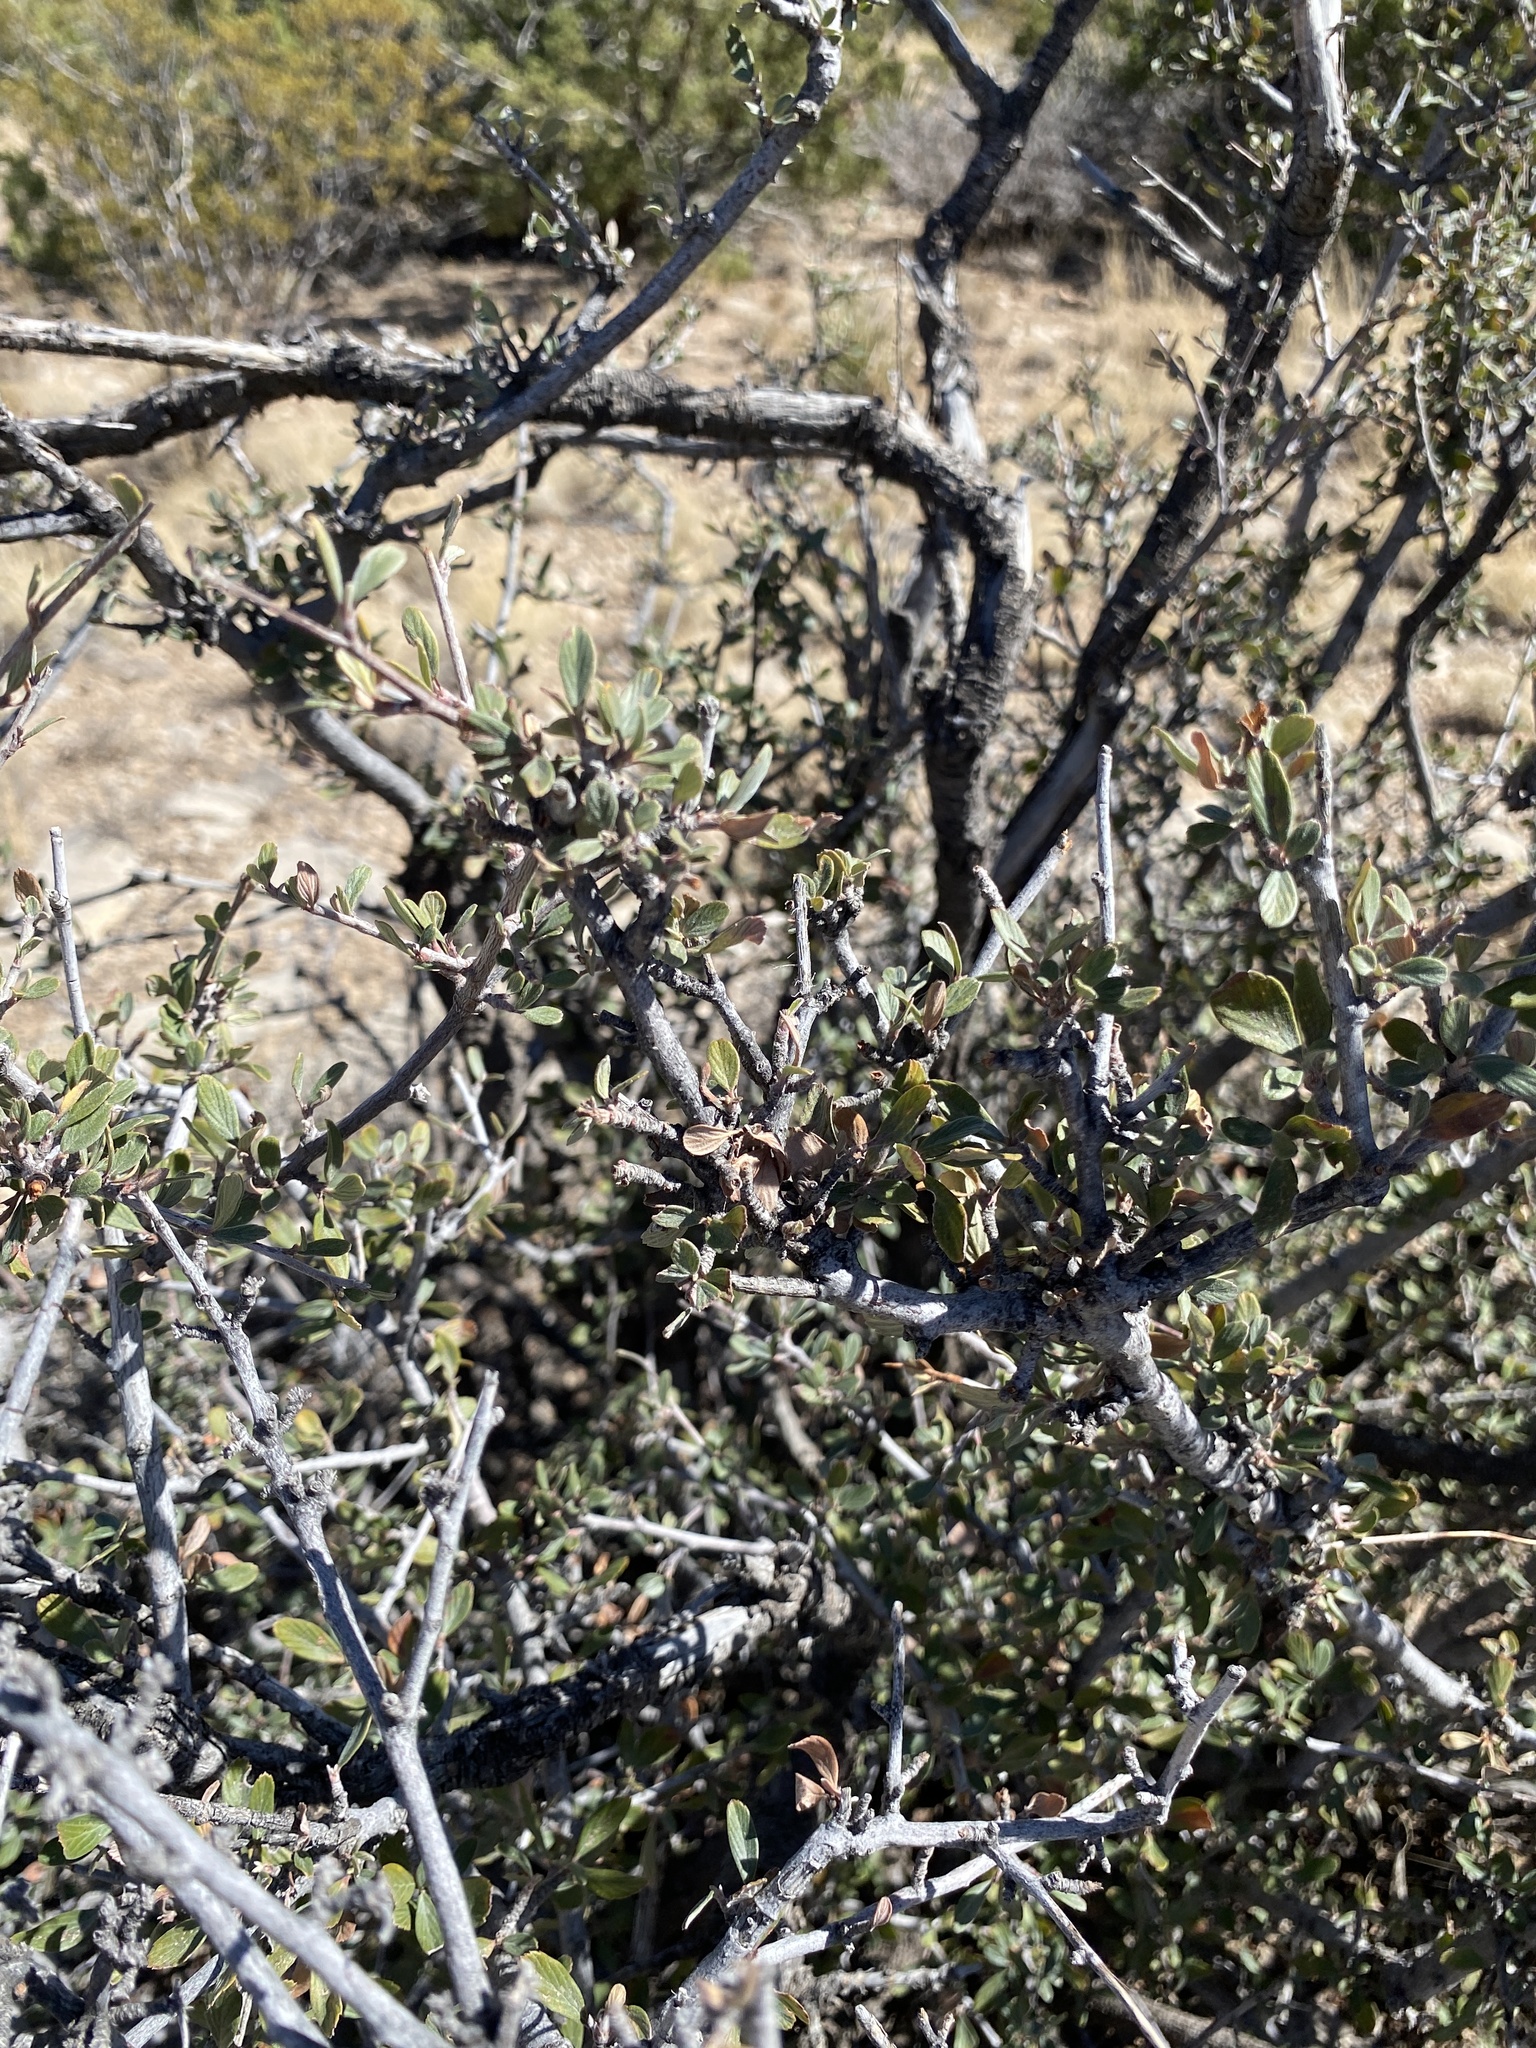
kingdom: Plantae
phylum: Tracheophyta
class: Magnoliopsida
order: Rosales
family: Rosaceae
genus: Cercocarpus
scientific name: Cercocarpus breviflorus
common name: Wright's mountain-mahogany
